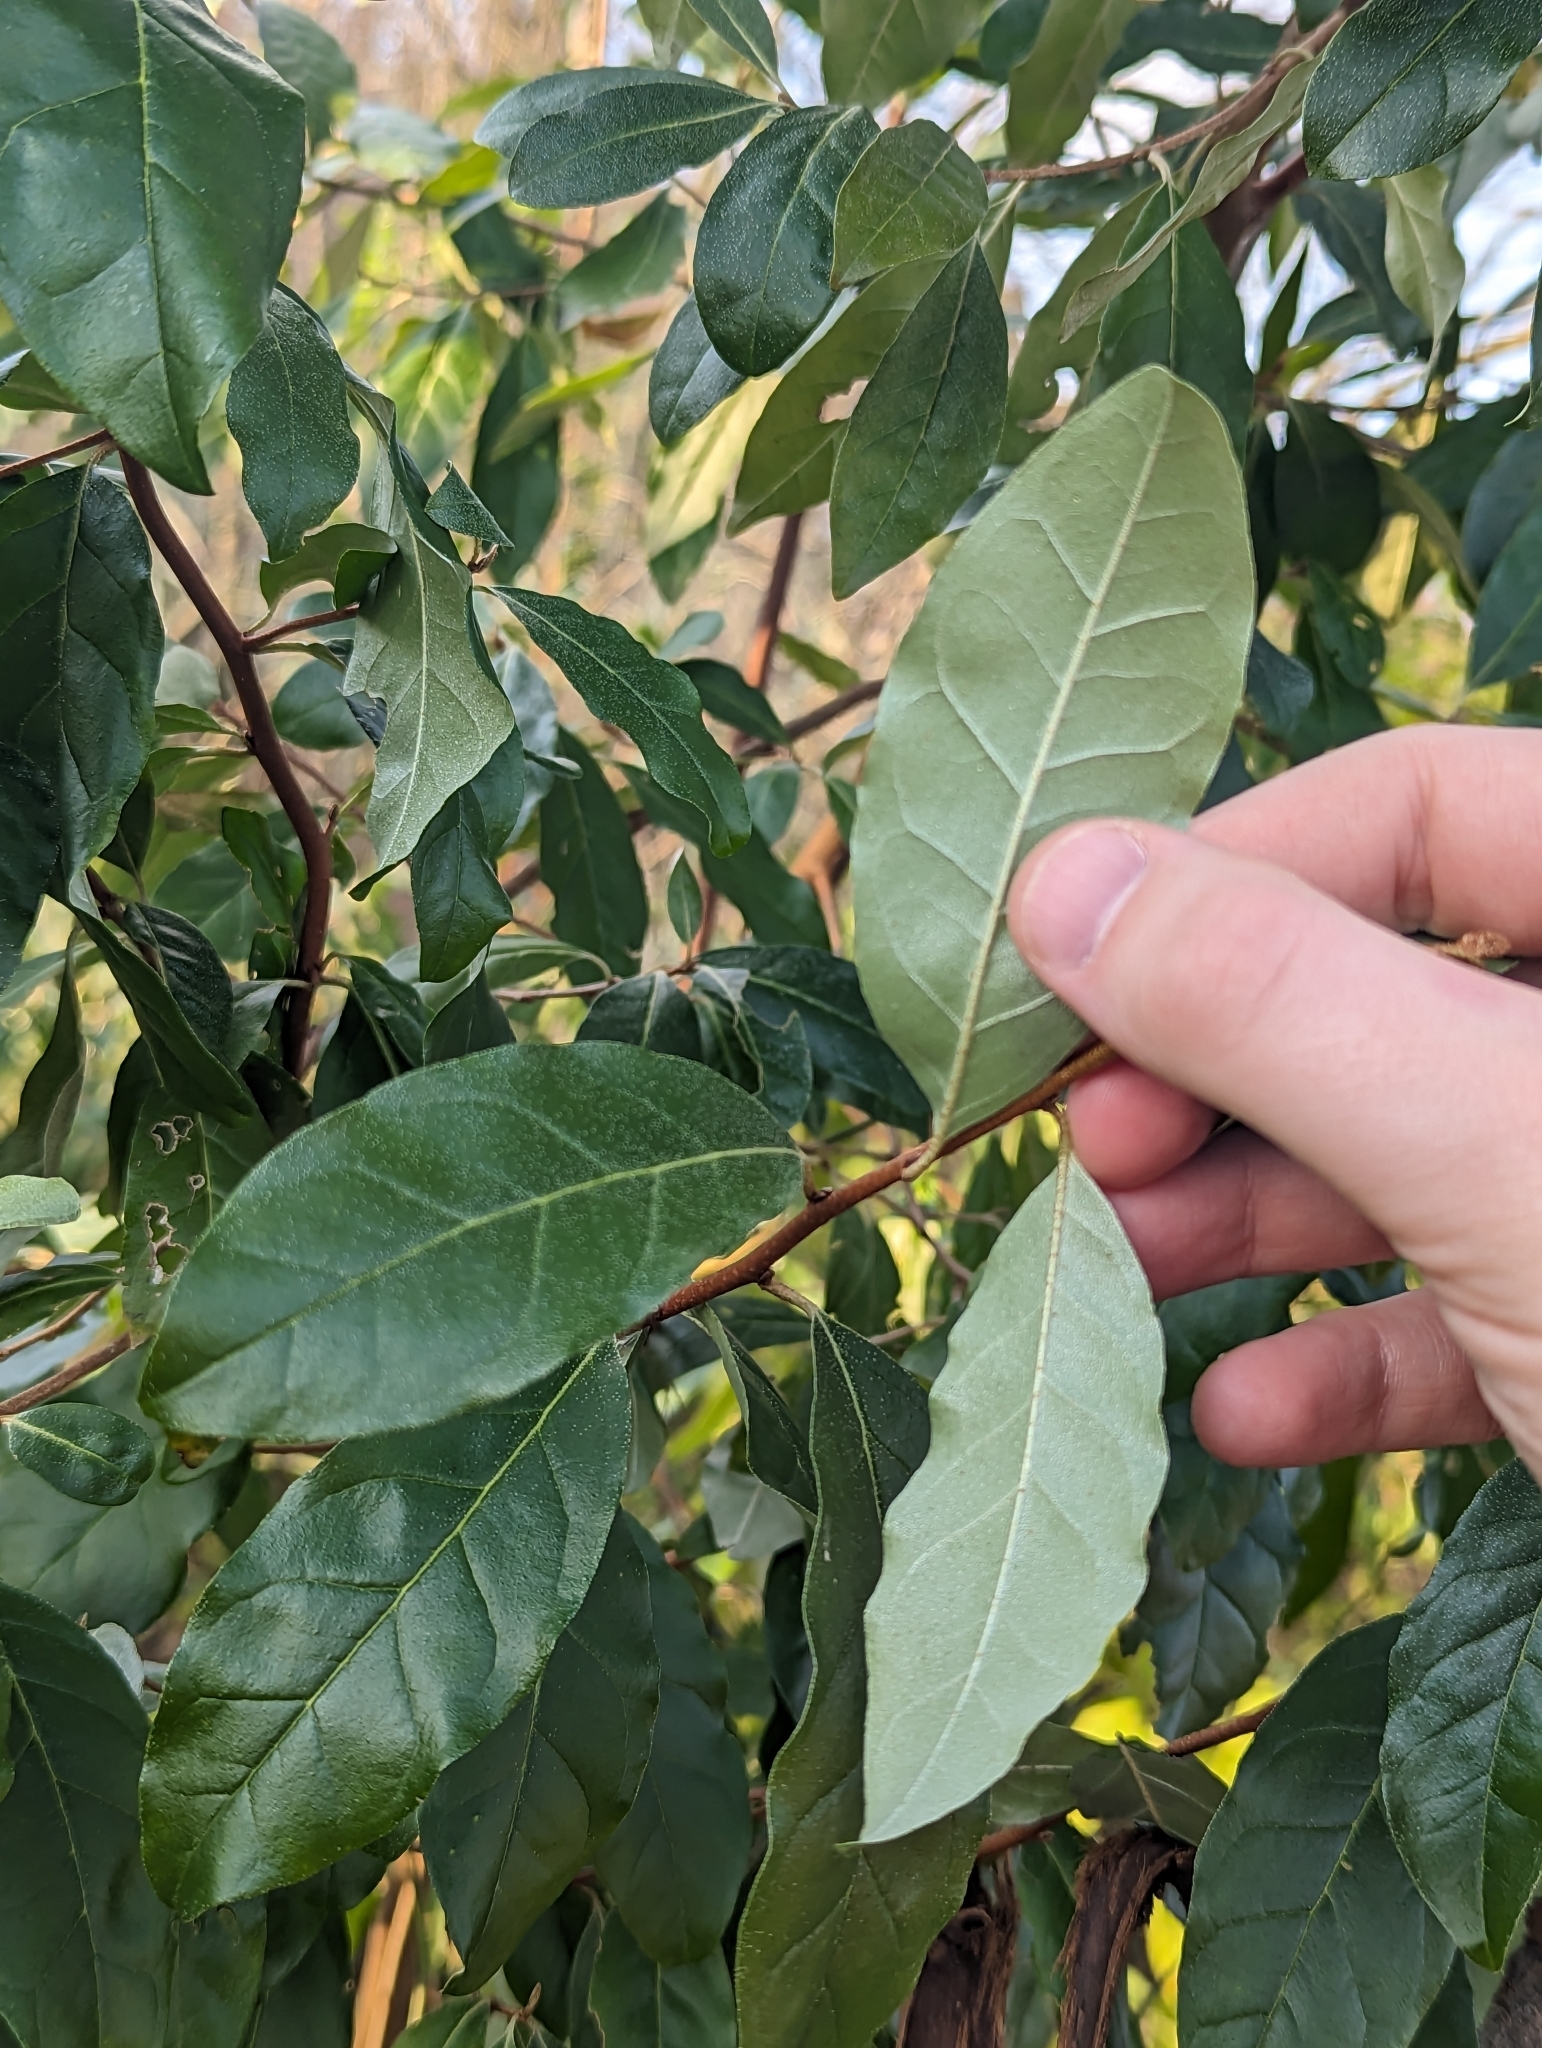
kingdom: Plantae
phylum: Tracheophyta
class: Magnoliopsida
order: Rosales
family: Elaeagnaceae
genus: Elaeagnus
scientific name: Elaeagnus umbellata
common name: Autumn olive
